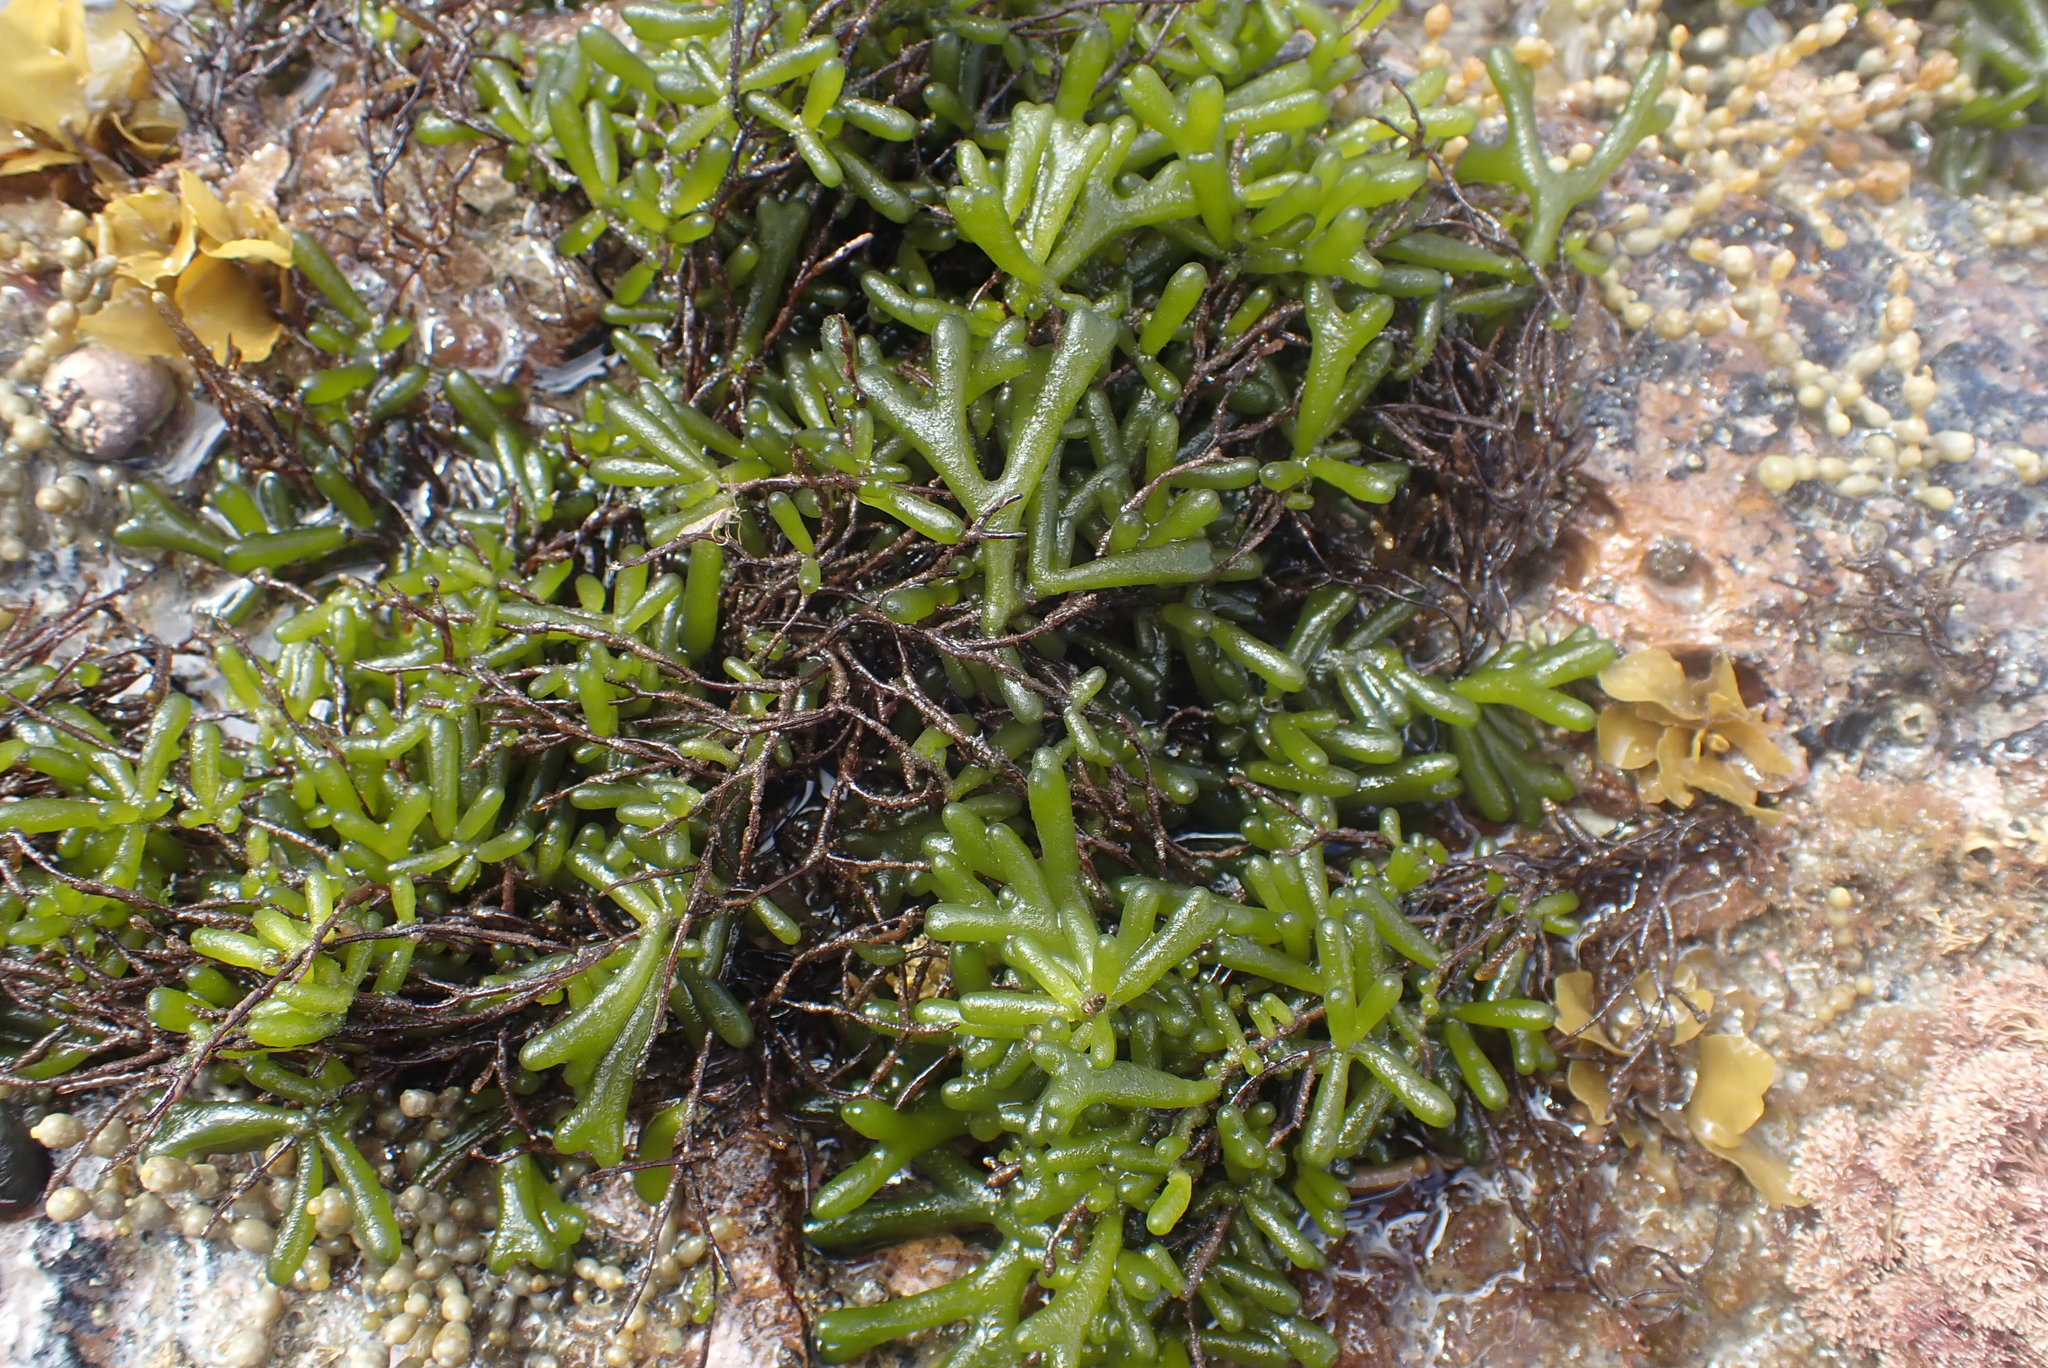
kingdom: Plantae
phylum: Chlorophyta
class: Ulvophyceae
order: Bryopsidales
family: Codiaceae
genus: Codium
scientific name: Codium fragile
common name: Dead man's fingers
